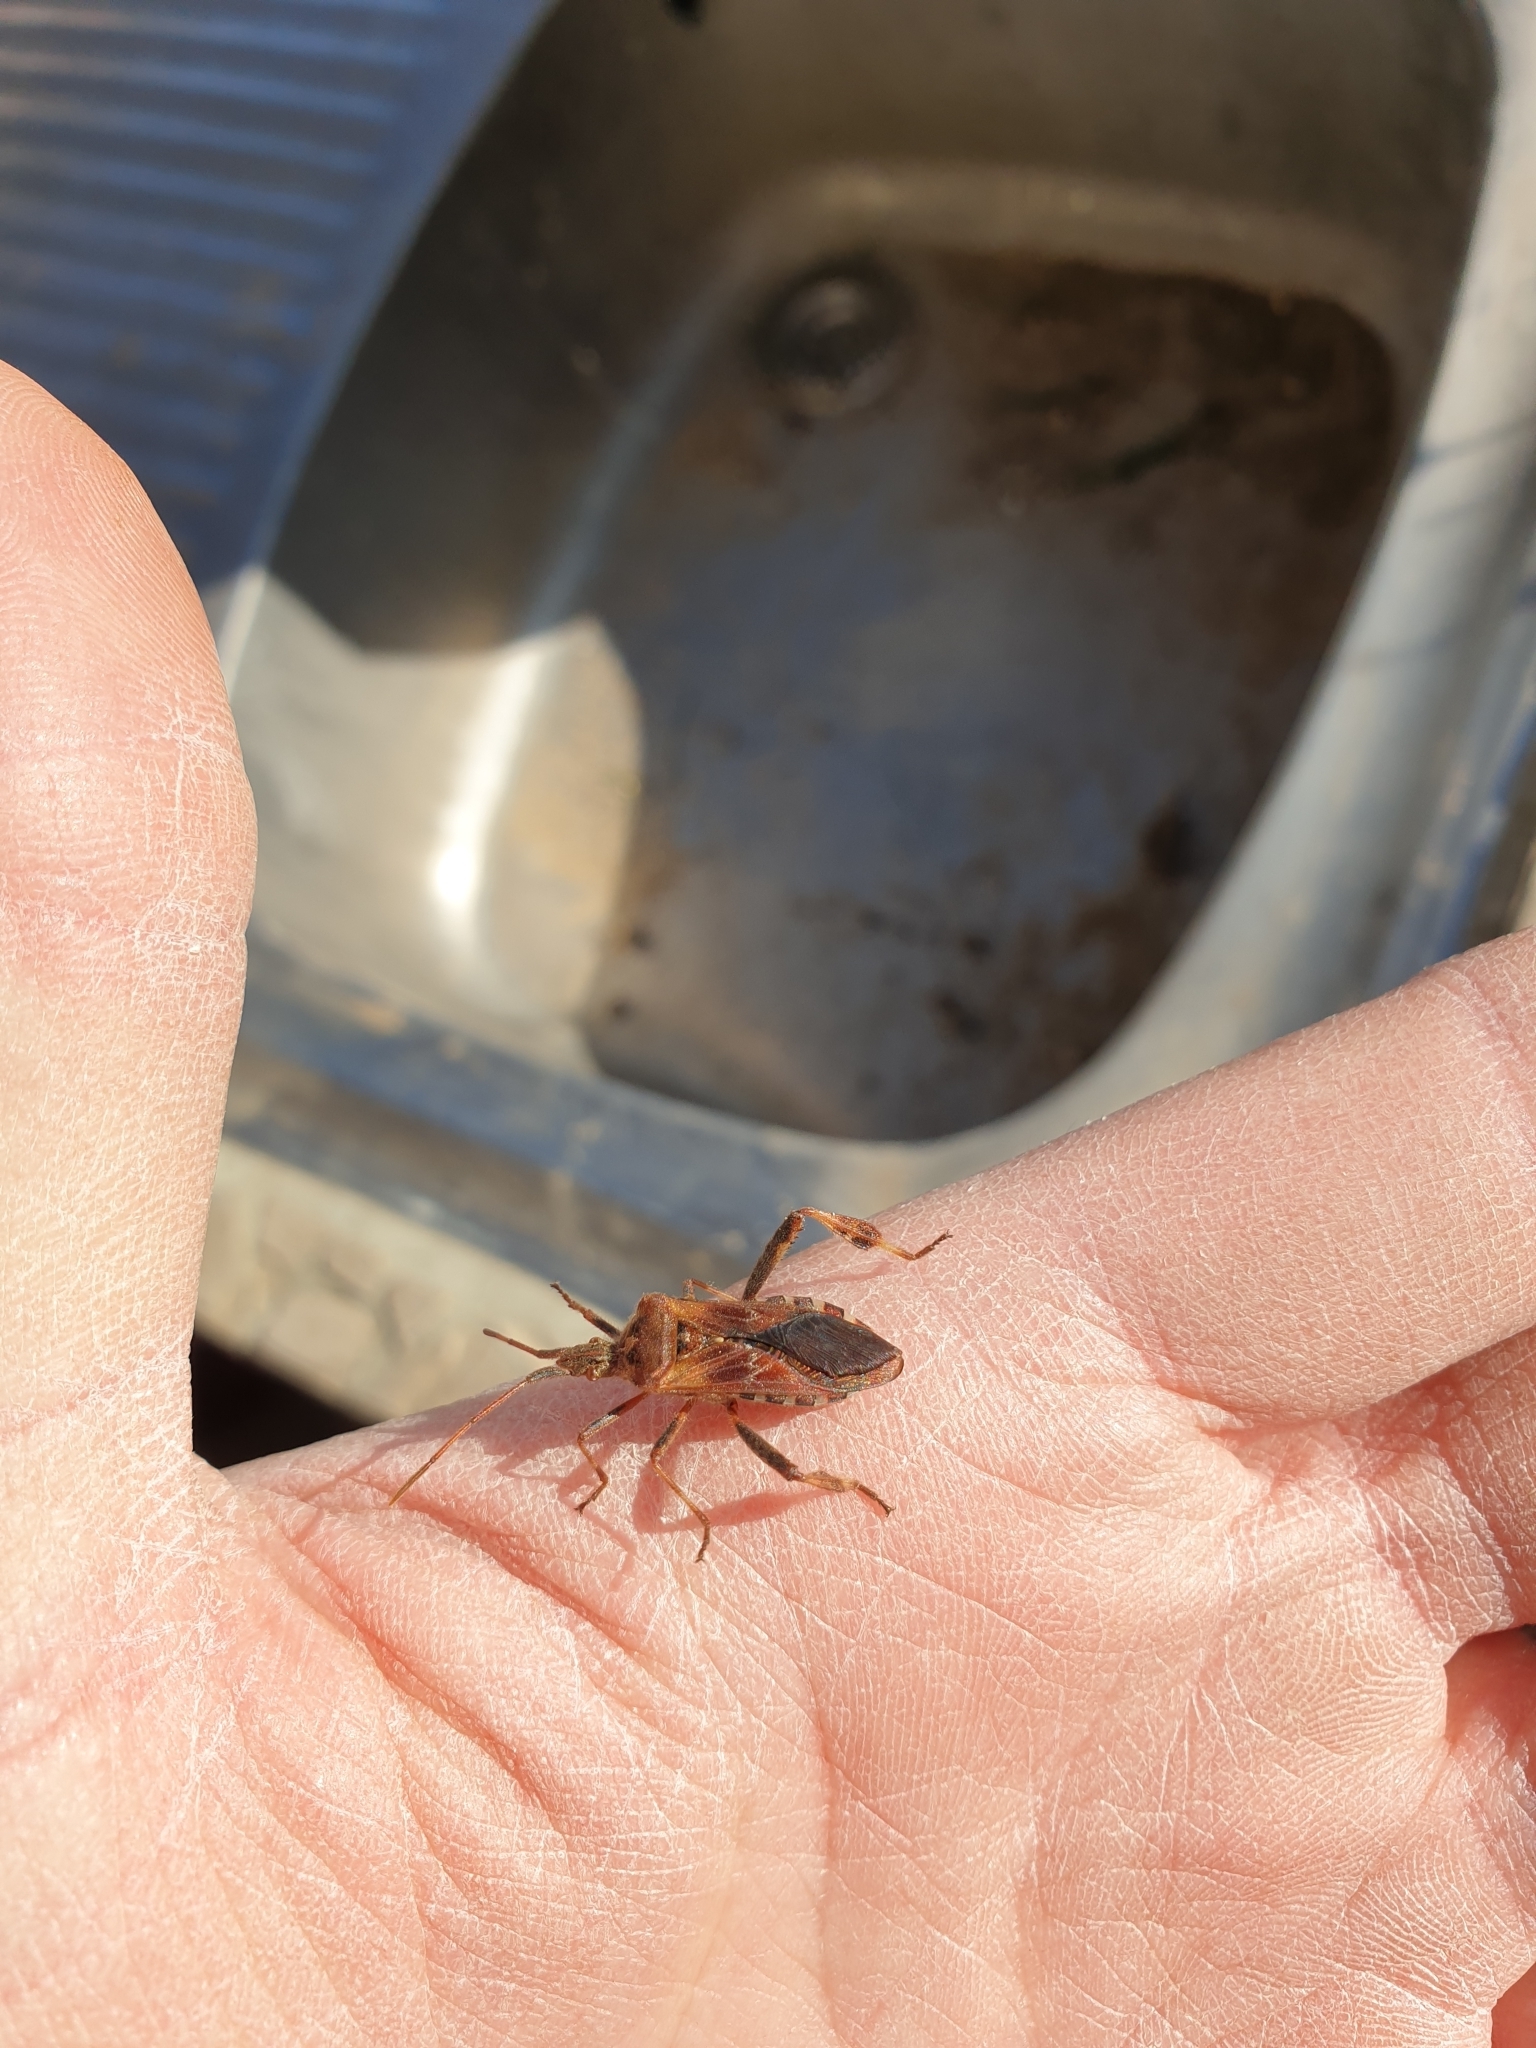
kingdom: Animalia
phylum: Arthropoda
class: Insecta
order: Hemiptera
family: Coreidae
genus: Leptoglossus
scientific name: Leptoglossus occidentalis
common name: Western conifer-seed bug
